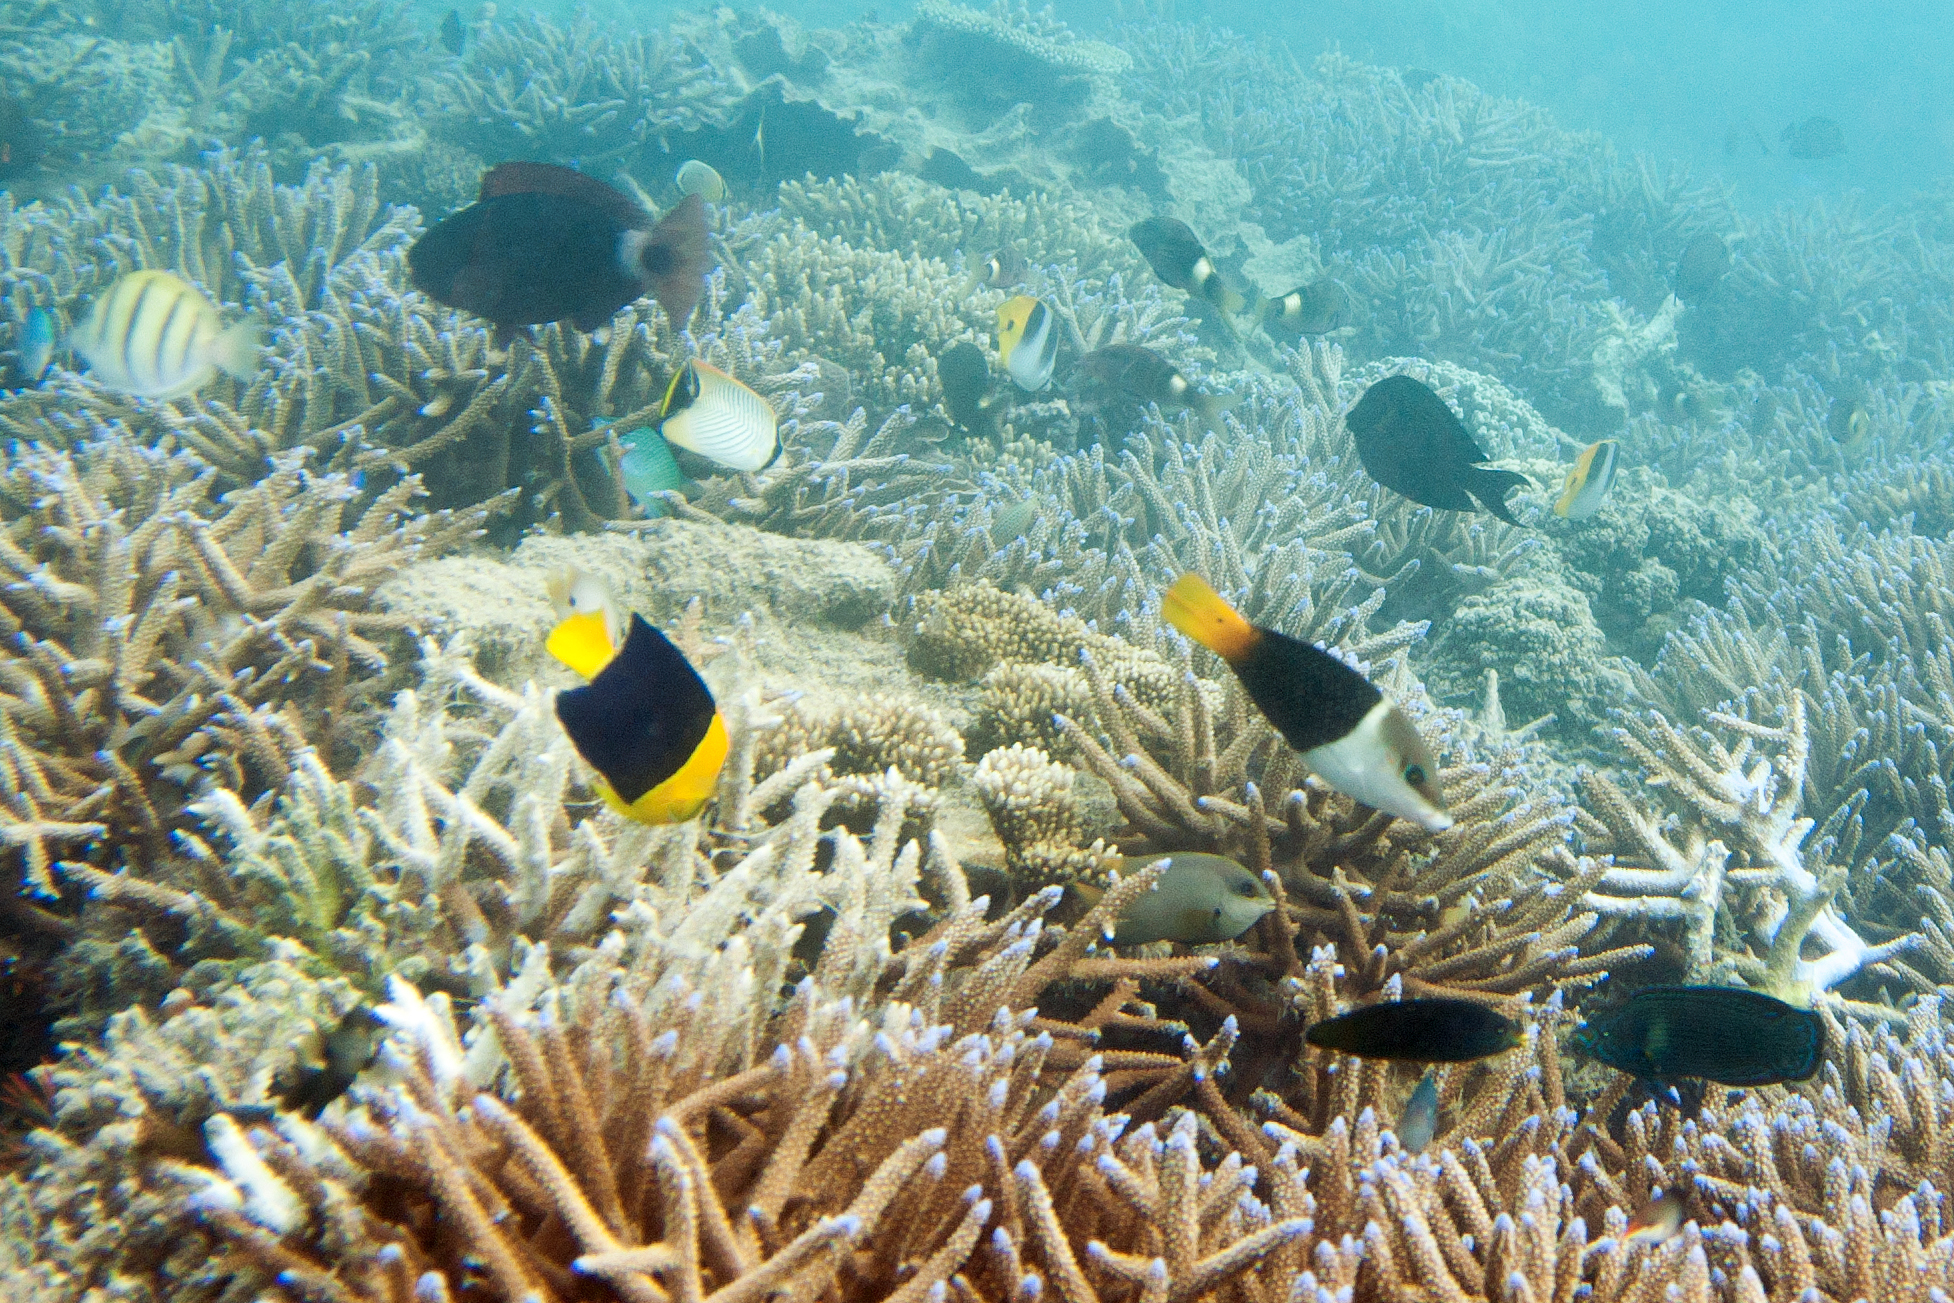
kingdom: Animalia
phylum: Chordata
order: Perciformes
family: Pomacanthidae
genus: Centropyge
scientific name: Centropyge bicolor
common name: Bicolor angelfish
